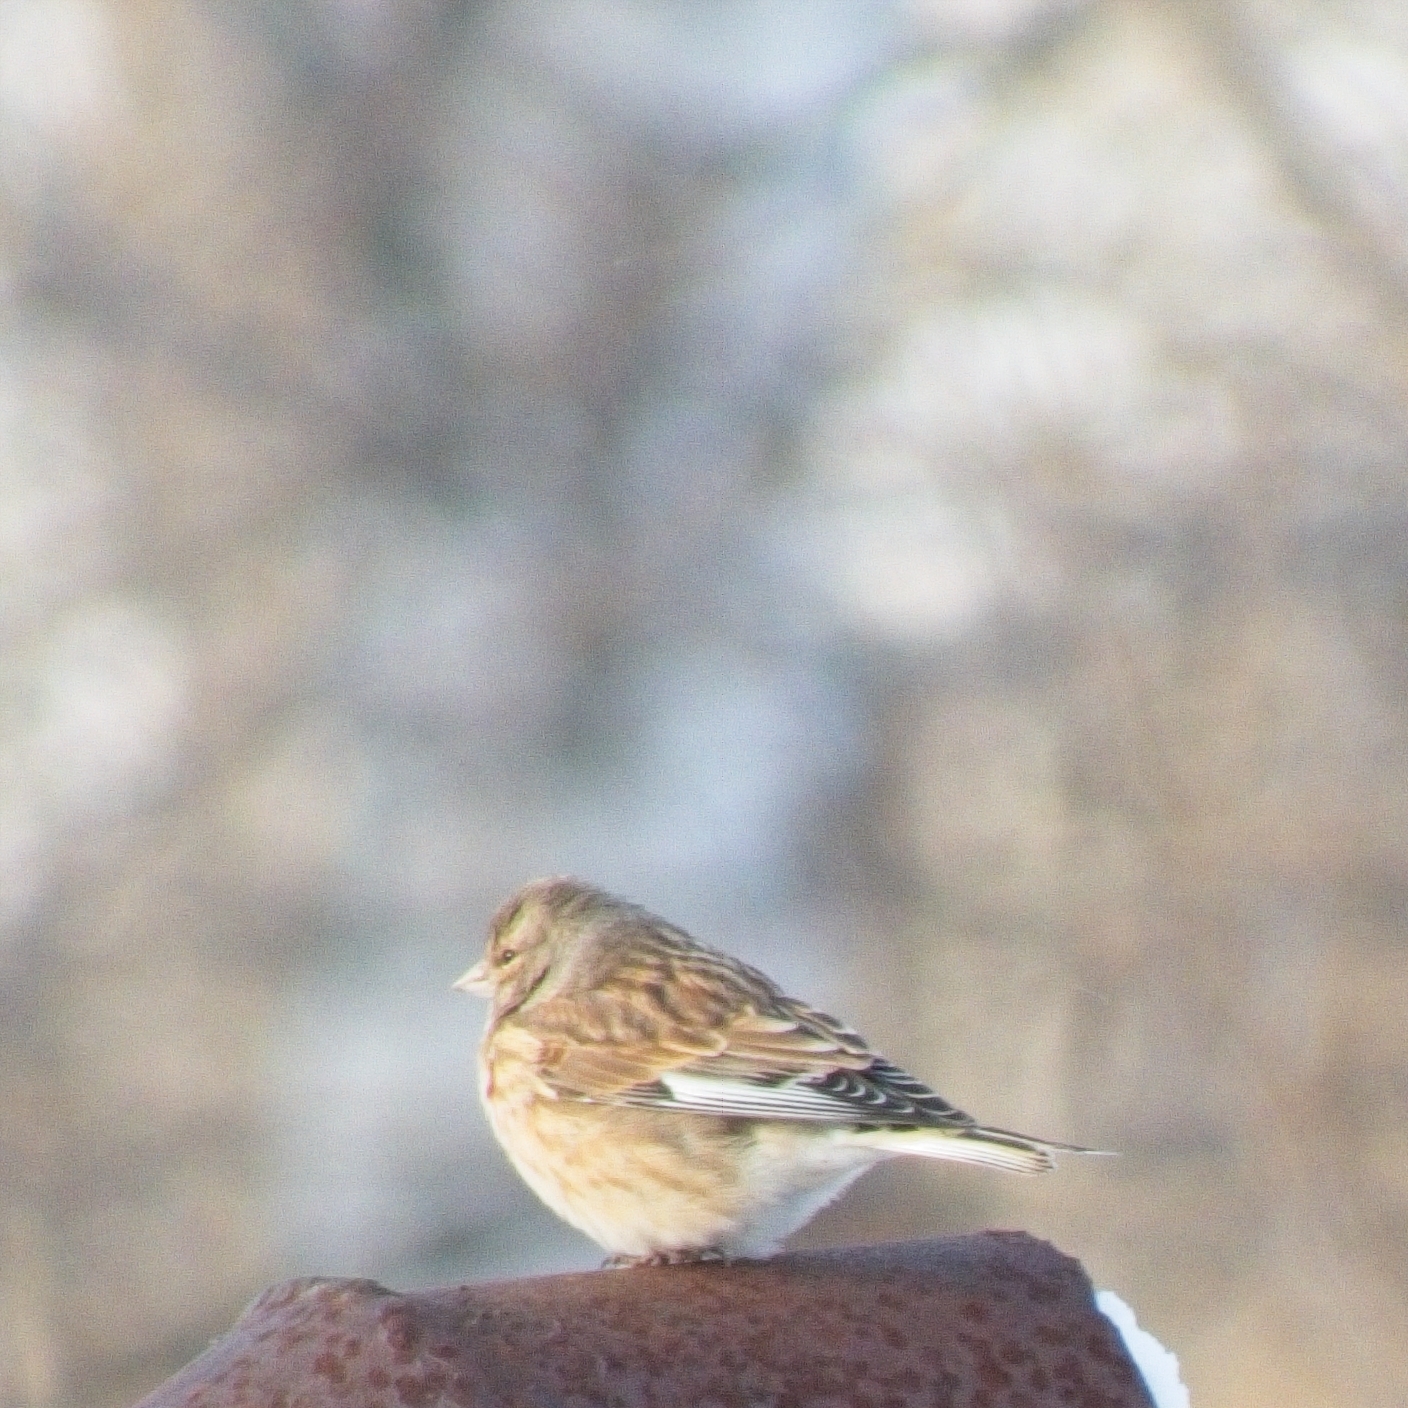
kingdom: Animalia
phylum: Chordata
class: Aves
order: Passeriformes
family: Fringillidae
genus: Linaria
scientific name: Linaria cannabina
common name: Common linnet
